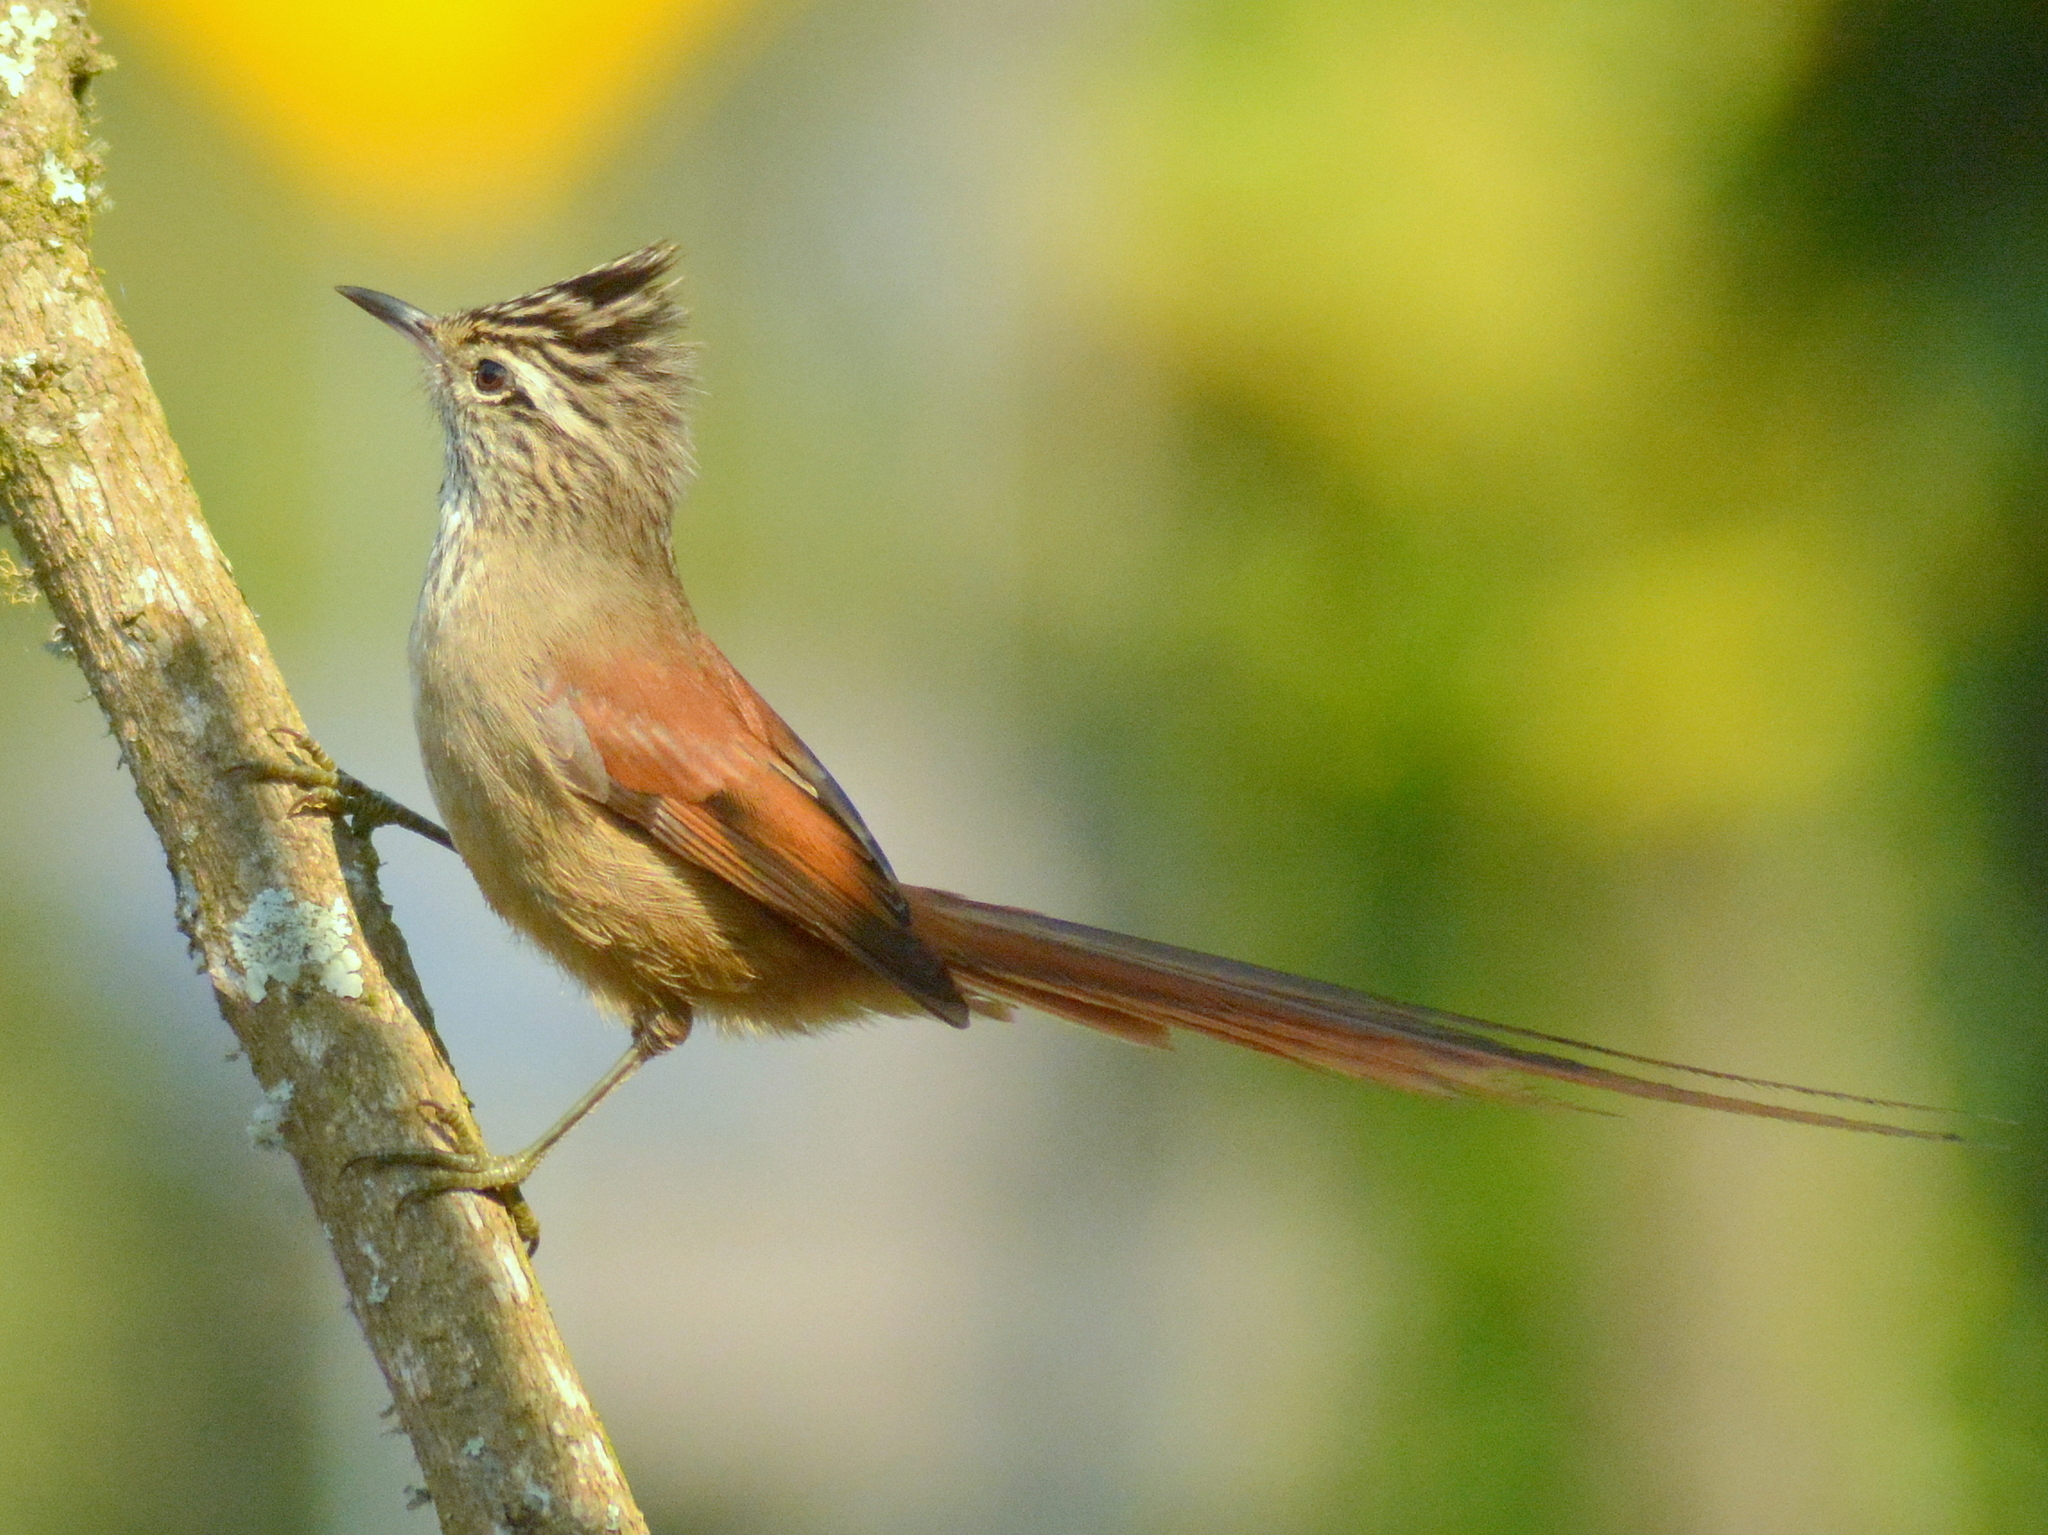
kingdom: Animalia
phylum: Chordata
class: Aves
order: Passeriformes
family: Furnariidae
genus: Leptasthenura
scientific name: Leptasthenura setaria
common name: Araucaria tit-spinetail
